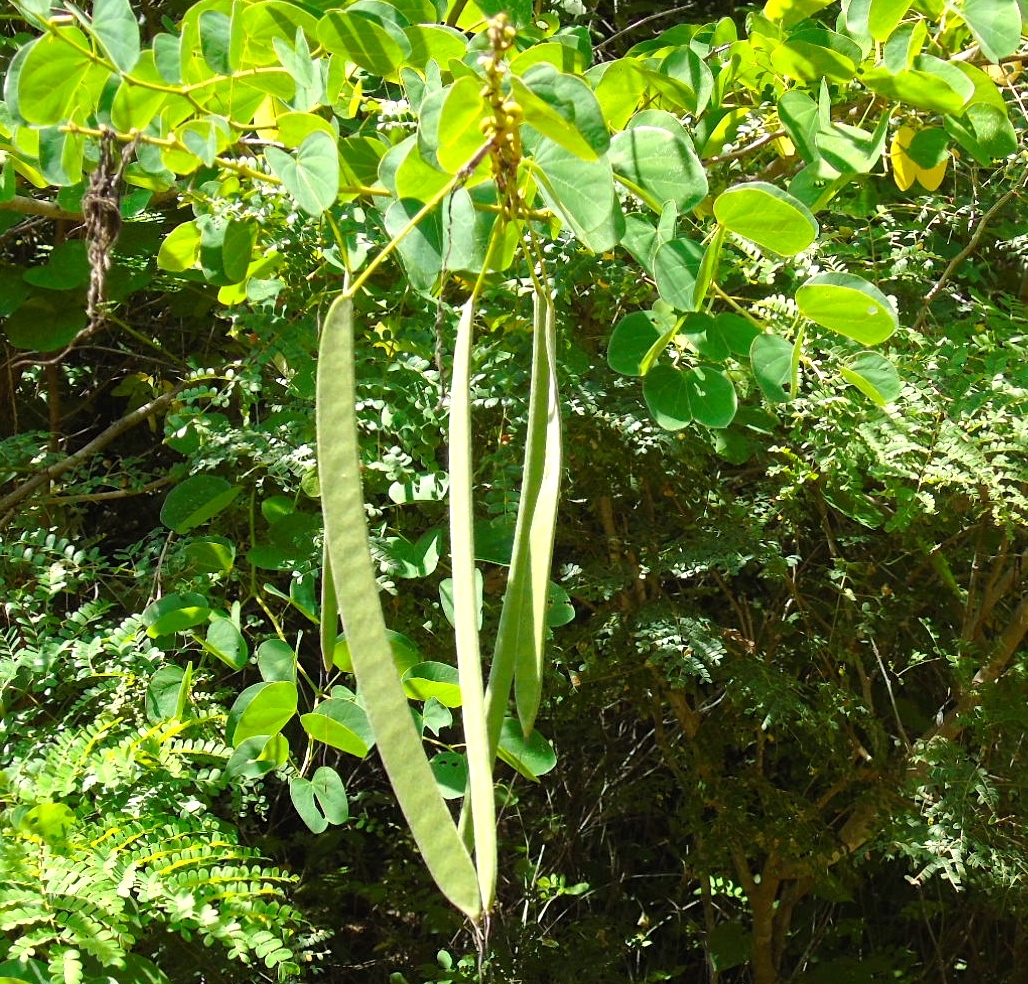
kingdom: Plantae
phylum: Tracheophyta
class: Magnoliopsida
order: Fabales
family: Fabaceae
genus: Bauhinia
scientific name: Bauhinia pauletia
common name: Railway-fence bauhinia
